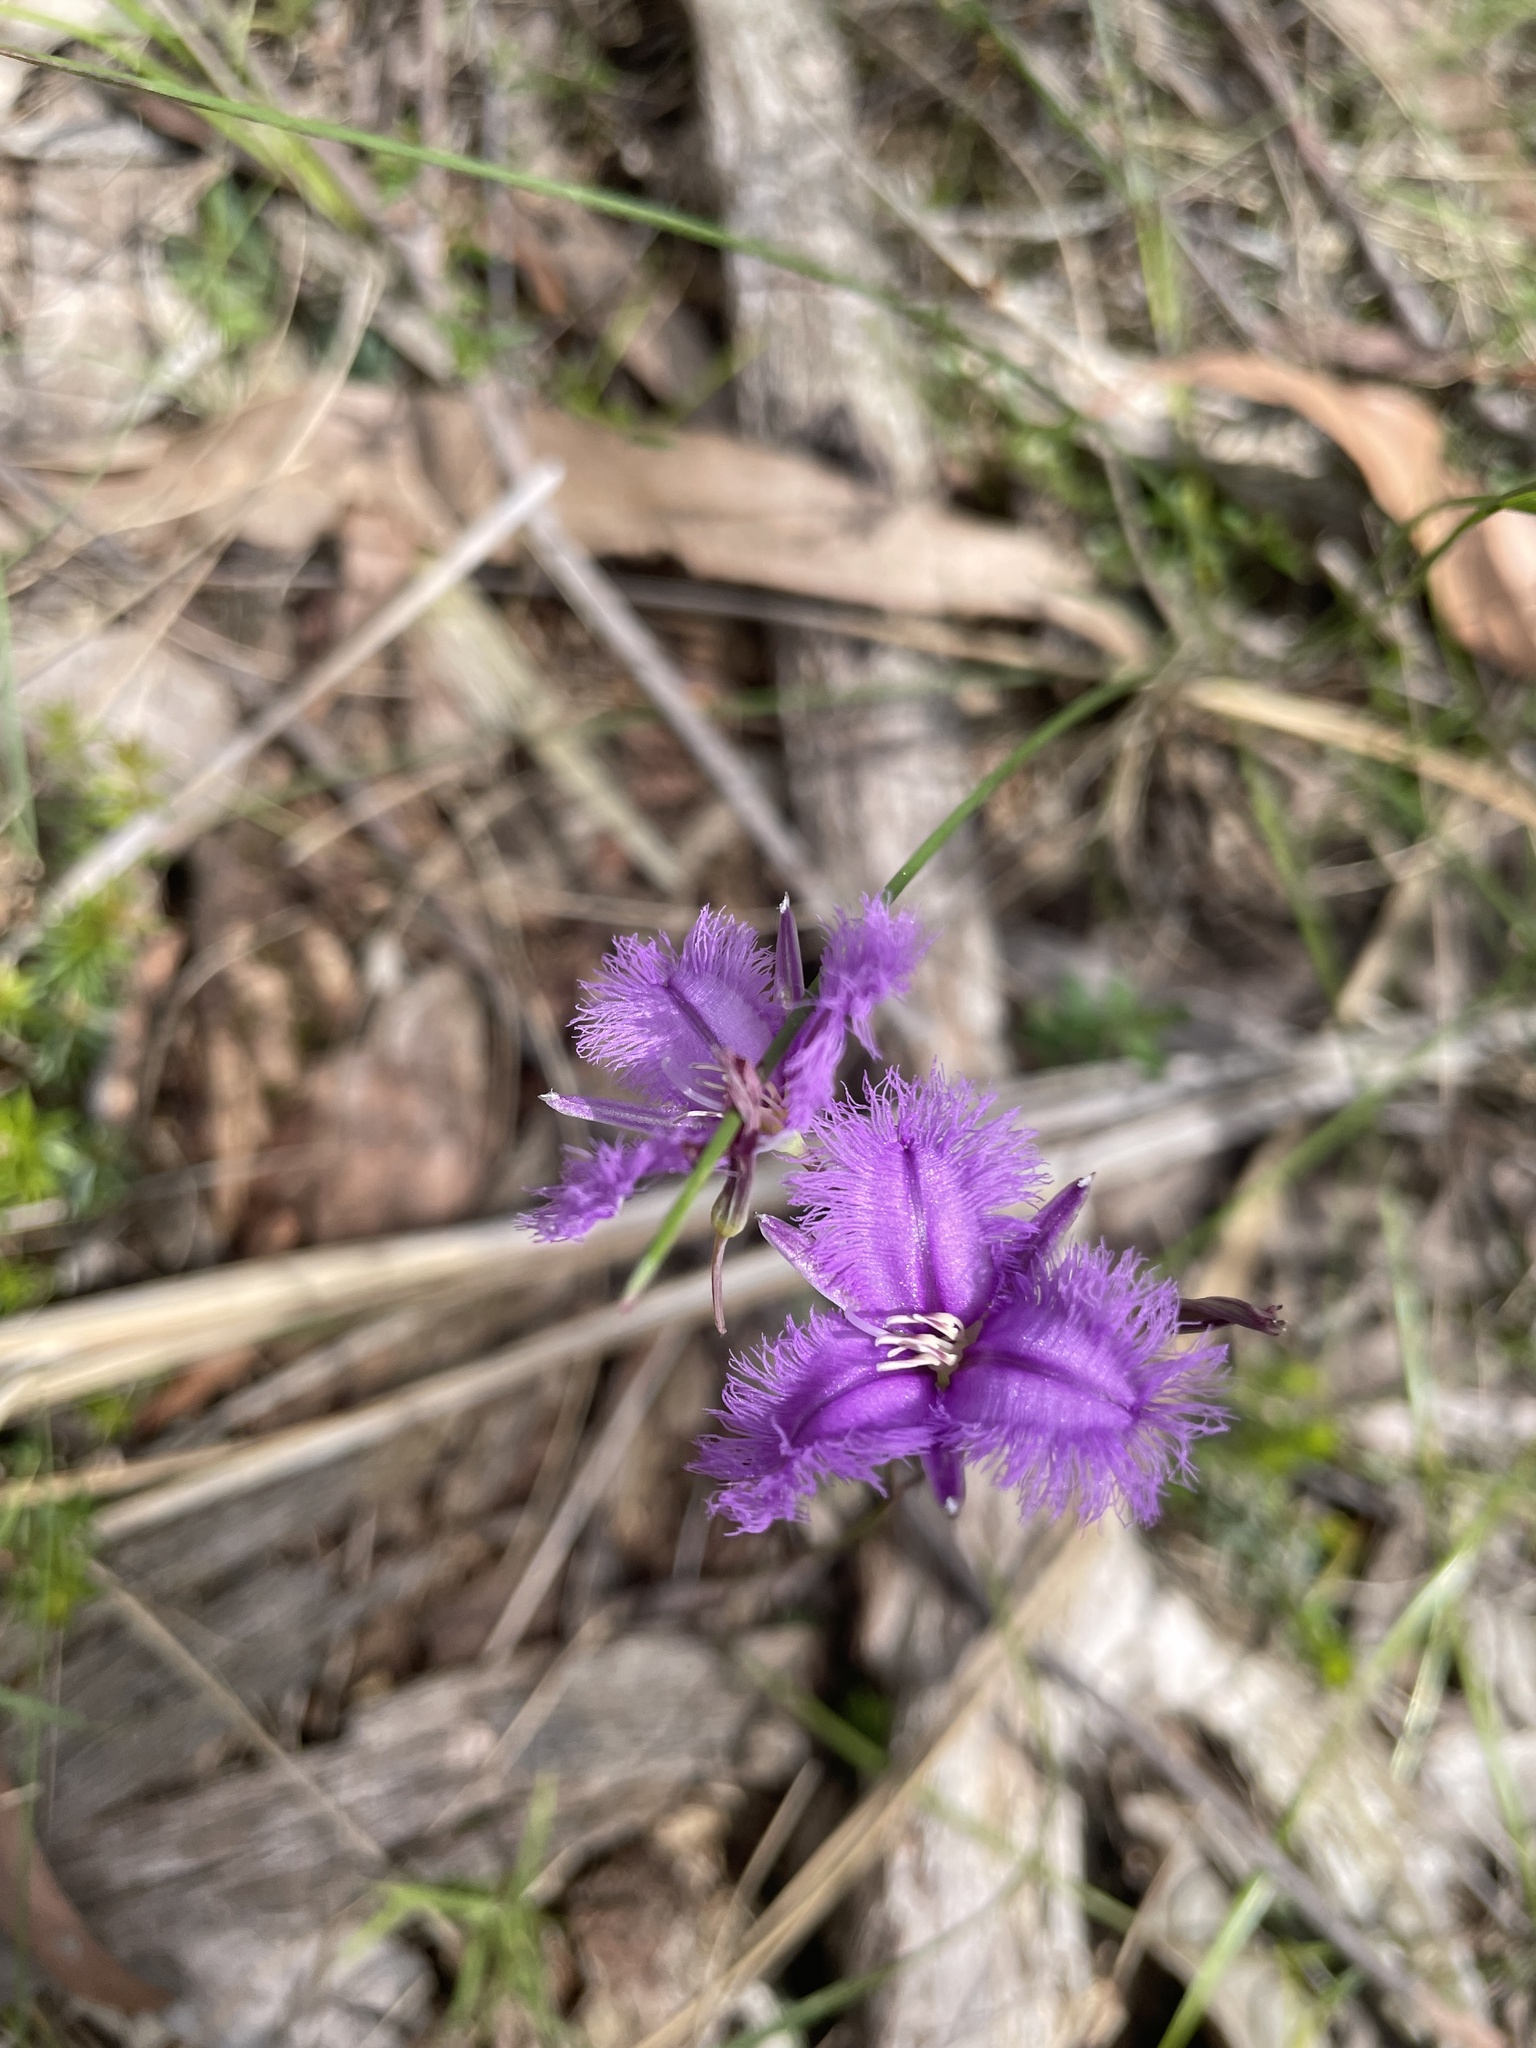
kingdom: Plantae
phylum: Tracheophyta
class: Liliopsida
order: Asparagales
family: Asparagaceae
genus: Thysanotus
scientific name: Thysanotus tuberosus
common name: Common fringed-lily
